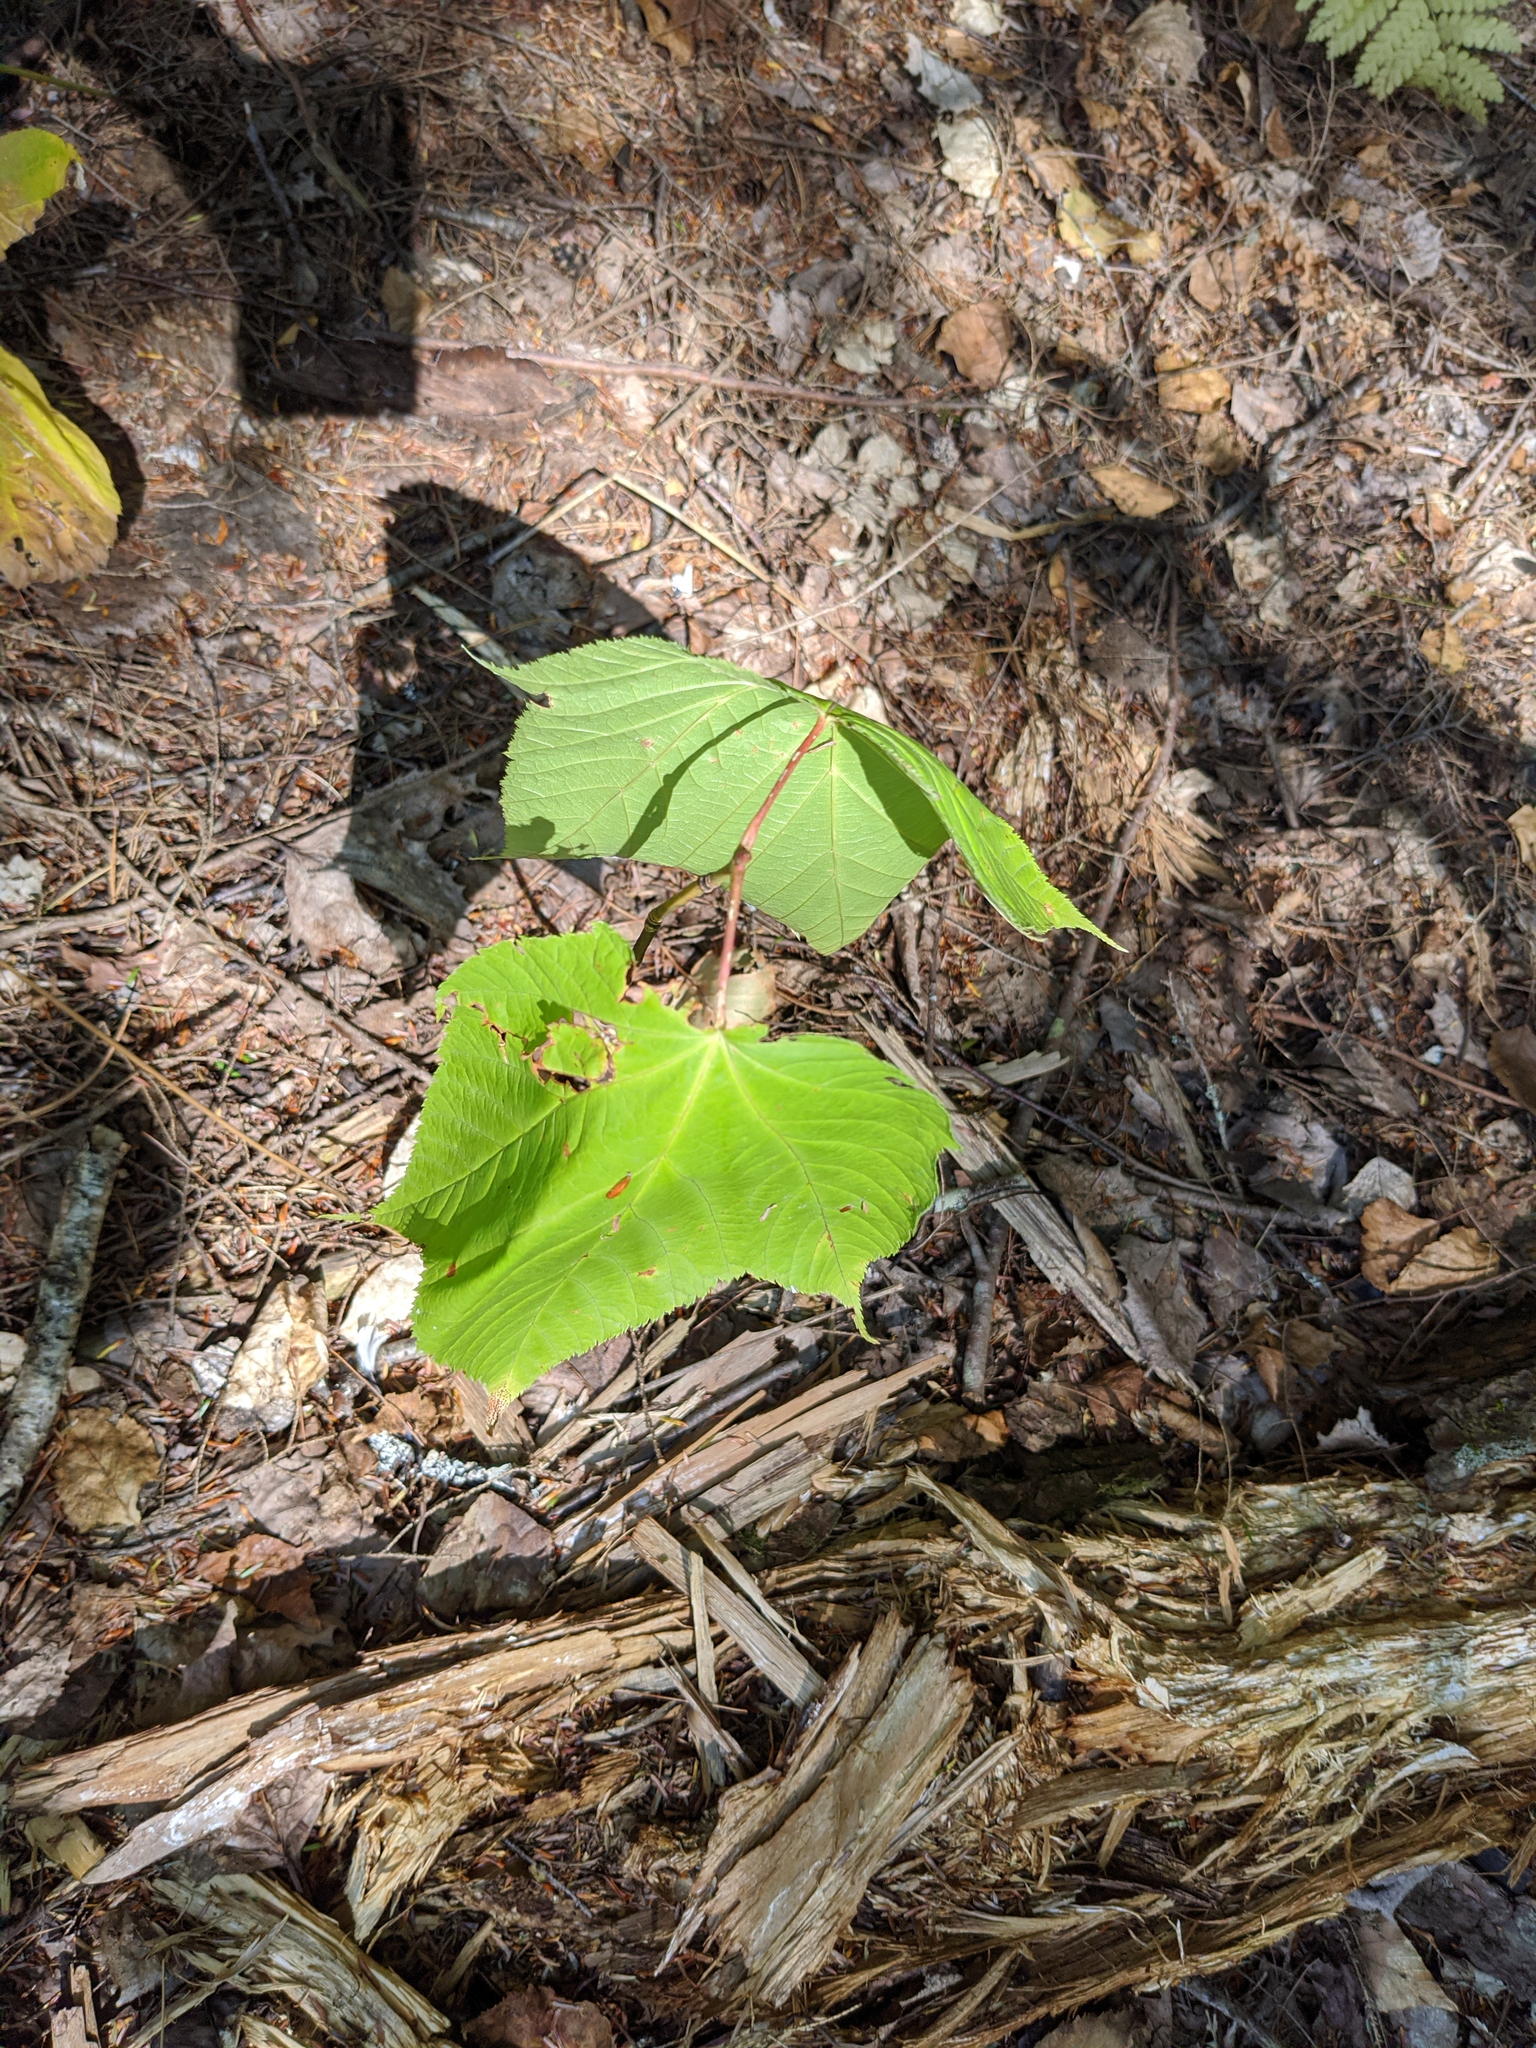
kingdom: Plantae
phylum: Tracheophyta
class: Magnoliopsida
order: Sapindales
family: Sapindaceae
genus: Acer
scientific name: Acer pensylvanicum
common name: Moosewood
